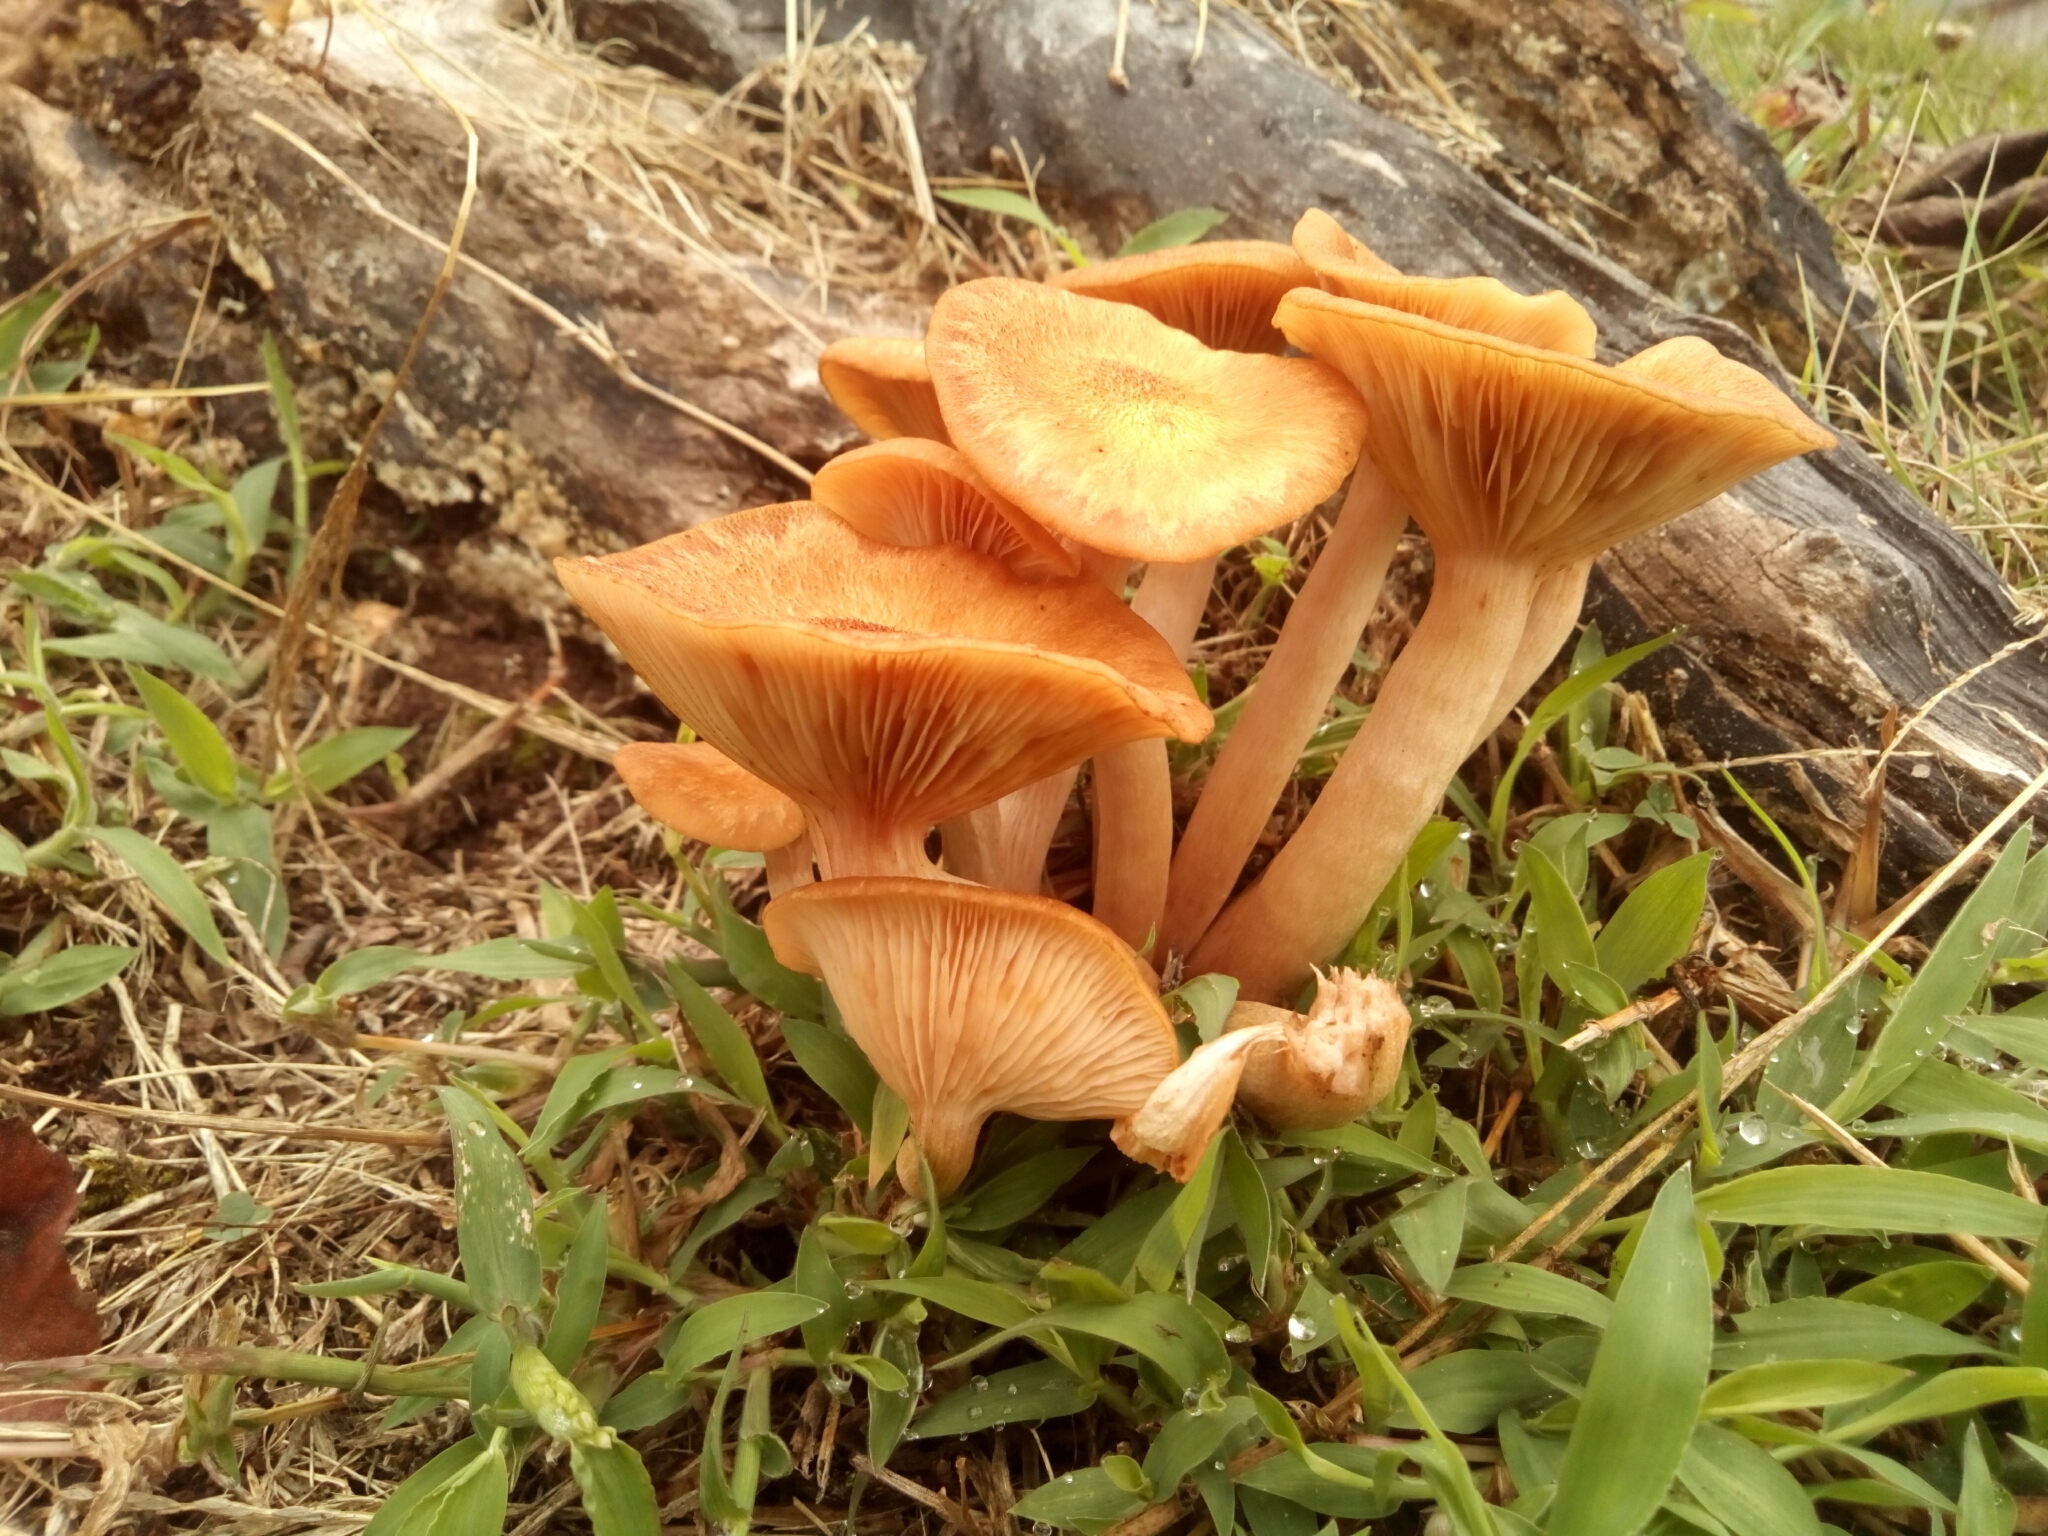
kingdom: Fungi
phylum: Basidiomycota
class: Agaricomycetes
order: Agaricales
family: Physalacriaceae
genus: Desarmillaria
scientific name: Desarmillaria caespitosa
